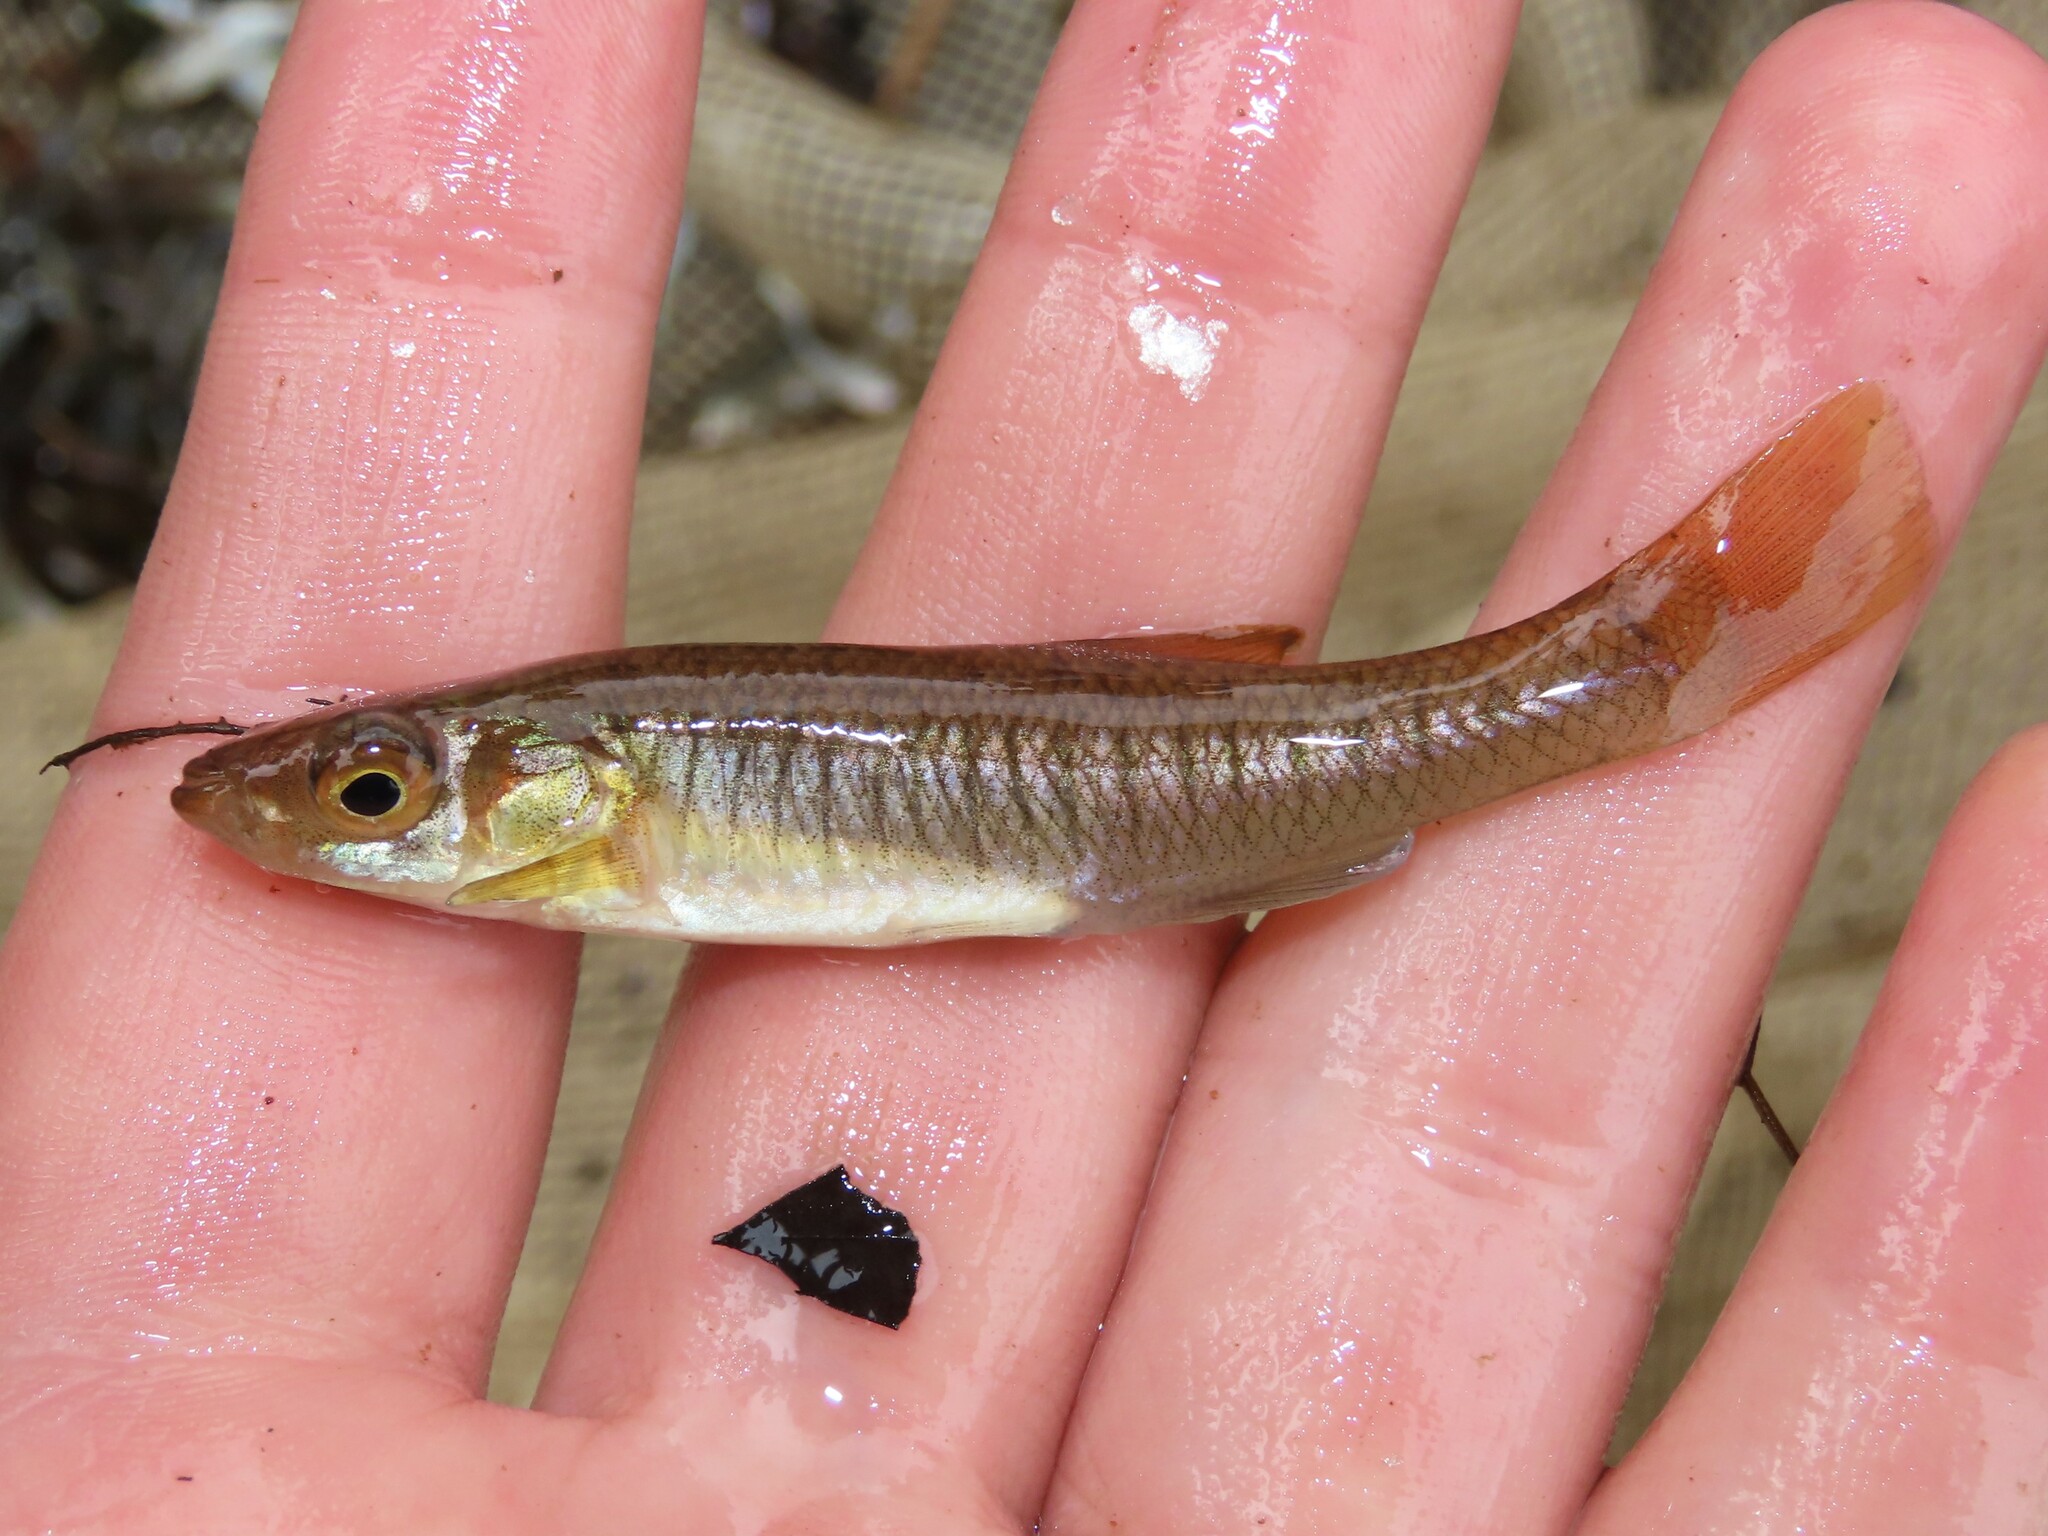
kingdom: Animalia
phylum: Chordata
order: Cyprinodontiformes
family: Fundulidae
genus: Fundulus
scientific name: Fundulus diaphanus
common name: Banded killifish
